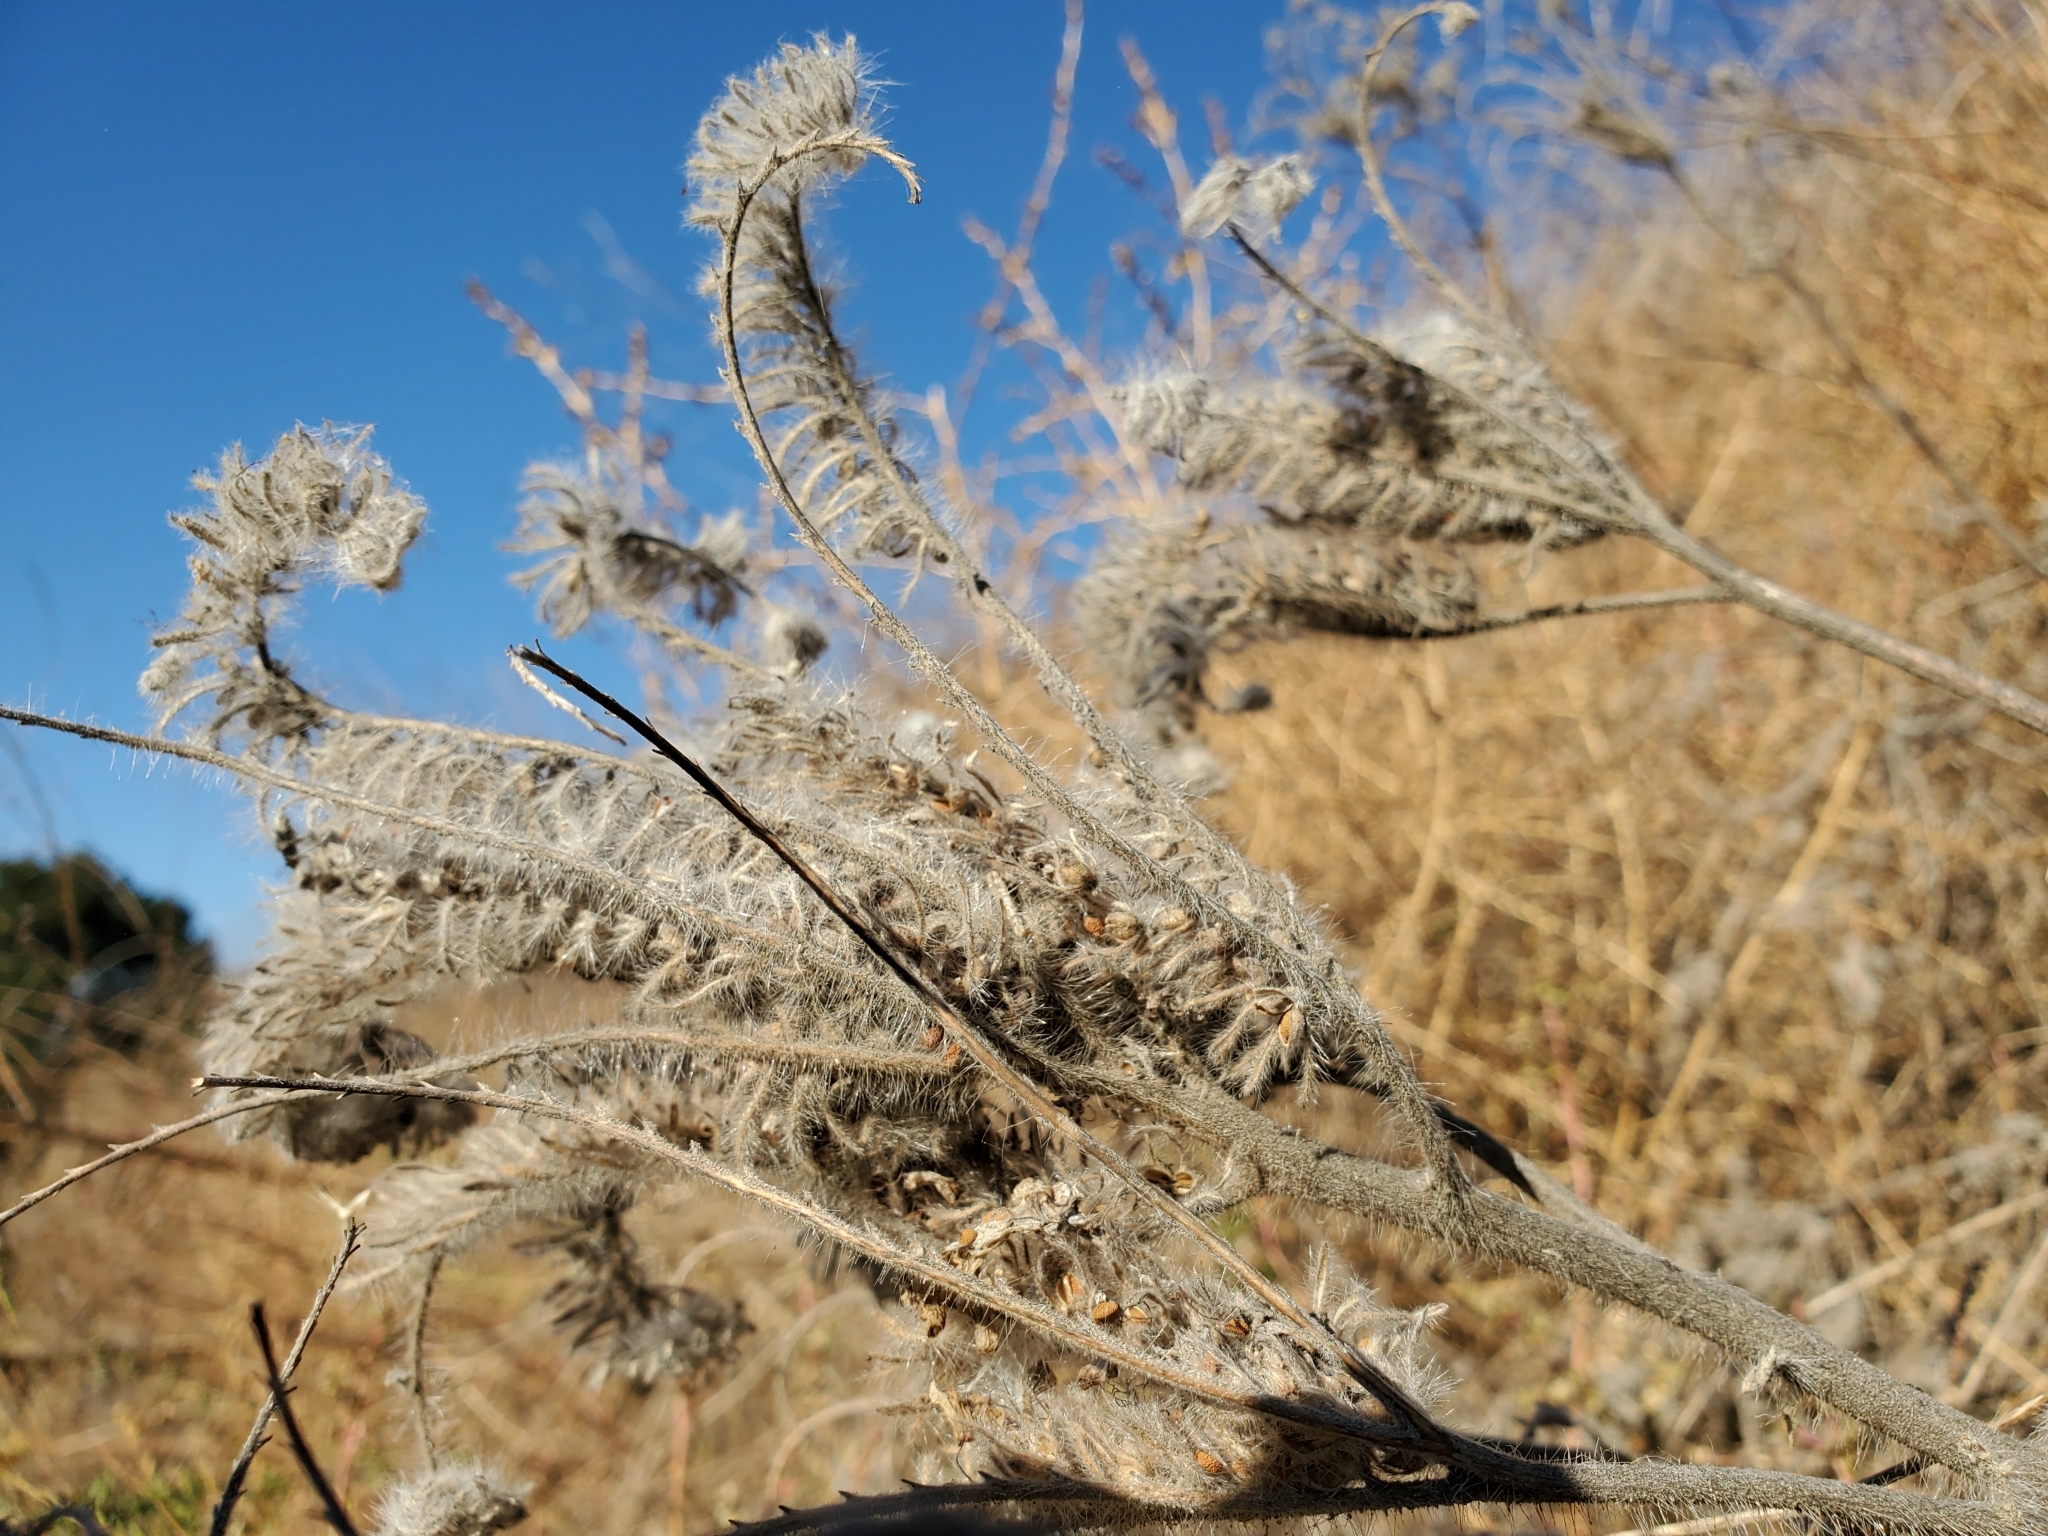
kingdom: Plantae
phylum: Tracheophyta
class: Magnoliopsida
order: Boraginales
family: Hydrophyllaceae
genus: Phacelia
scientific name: Phacelia hubbyi
